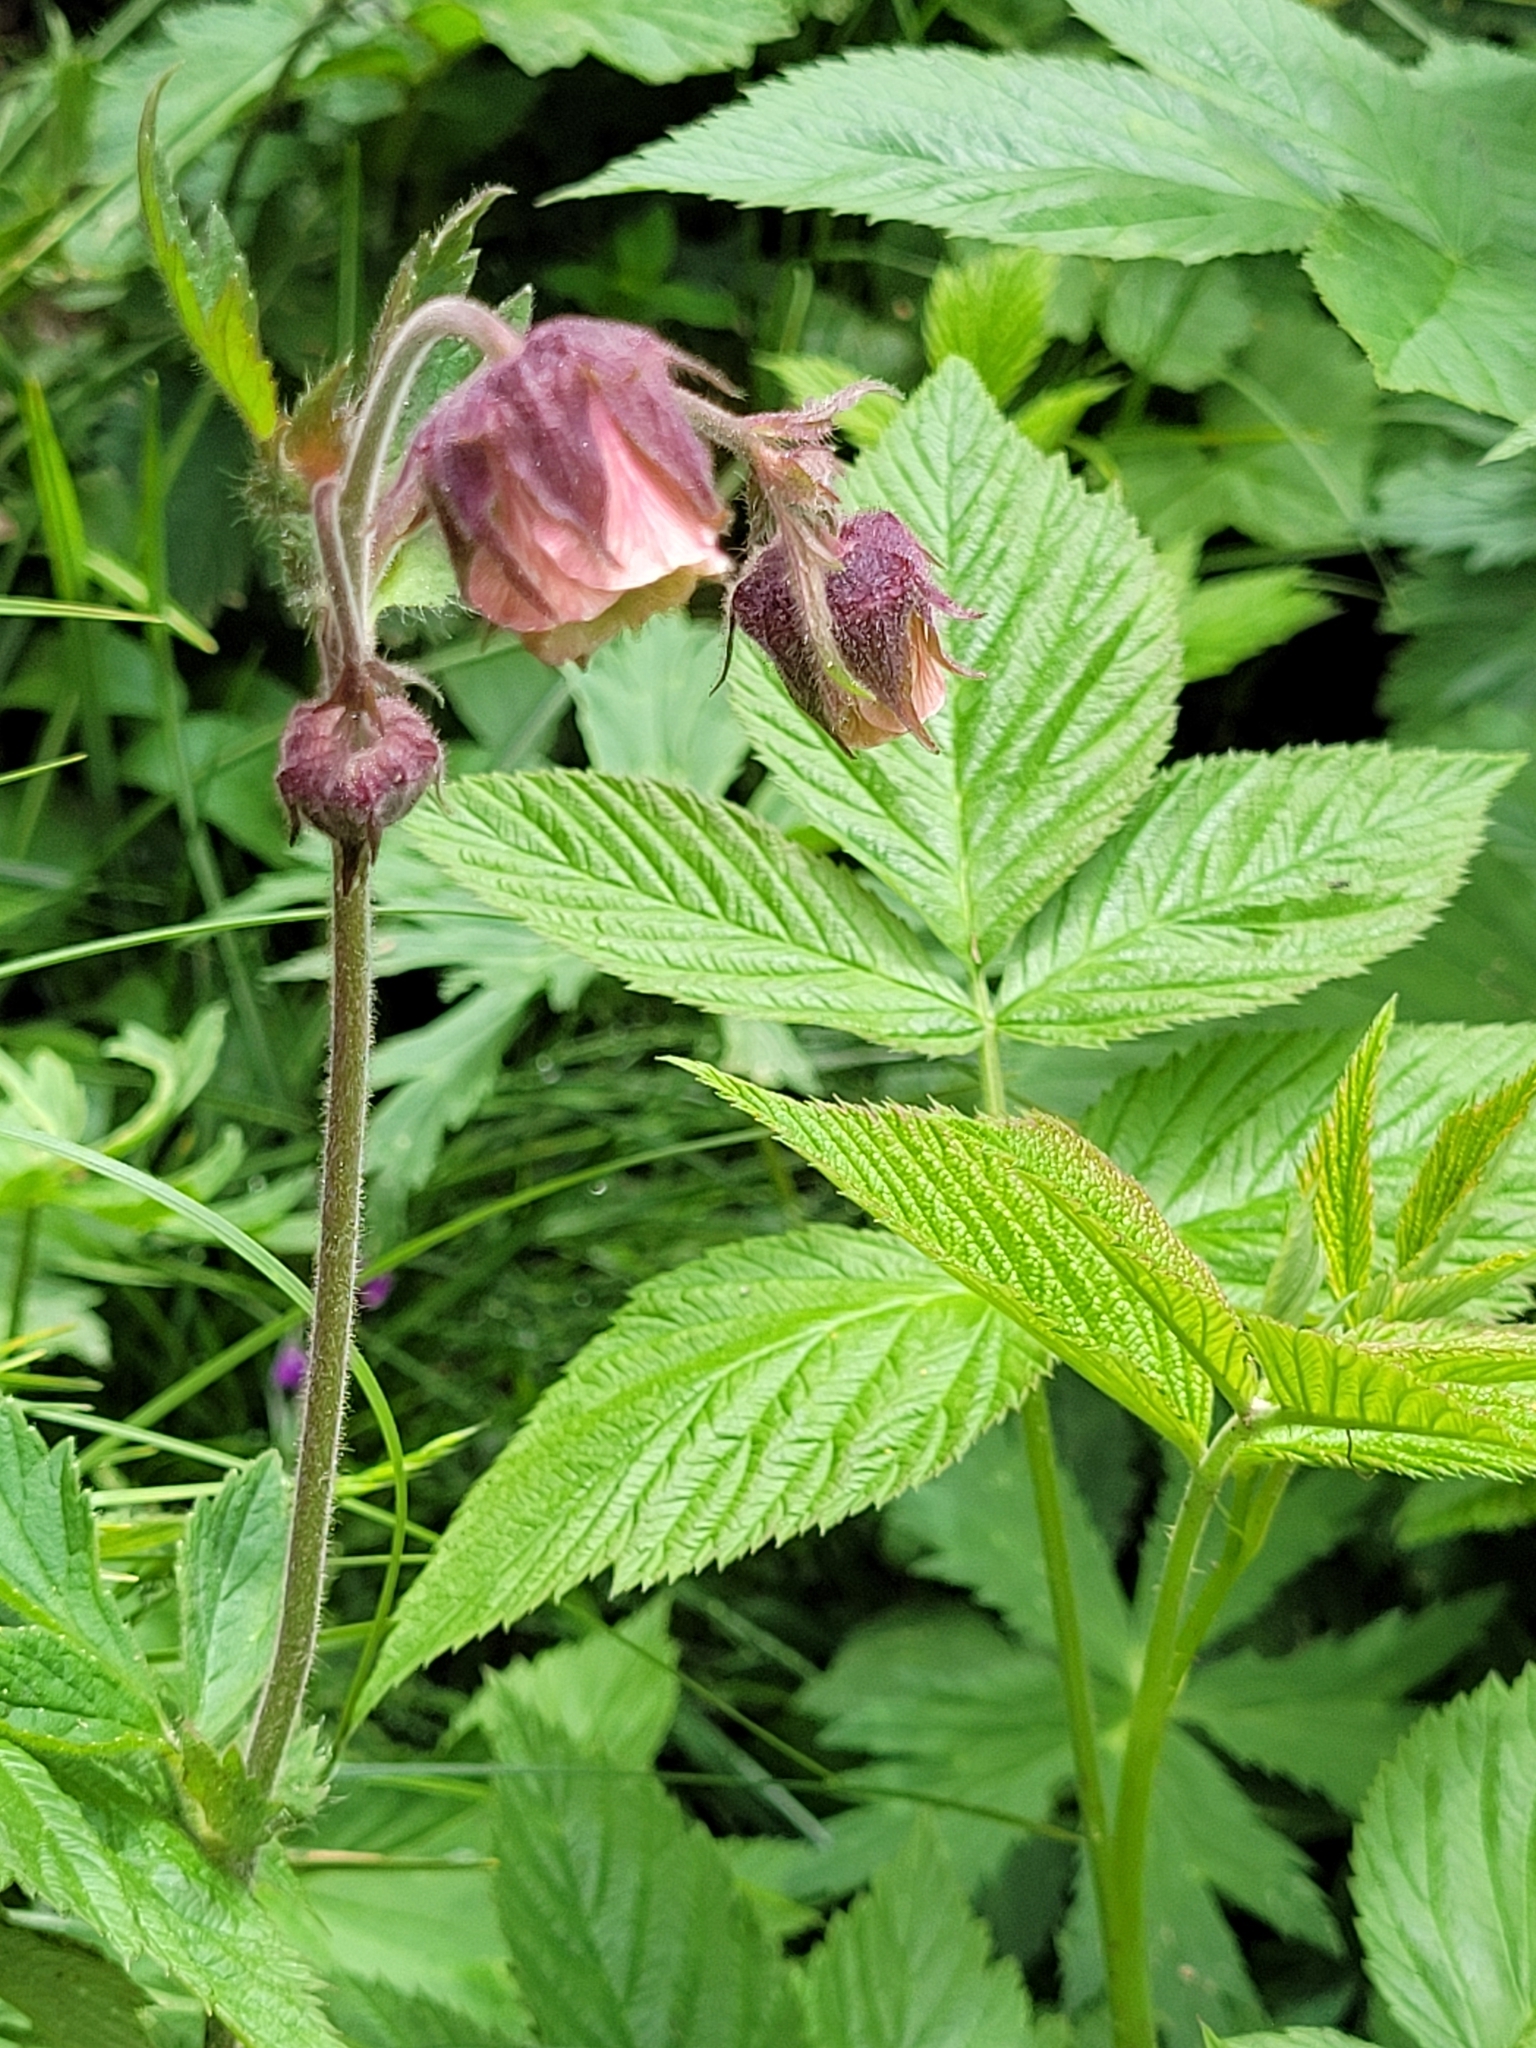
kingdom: Plantae
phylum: Tracheophyta
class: Magnoliopsida
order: Rosales
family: Rosaceae
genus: Geum
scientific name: Geum rivale
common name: Water avens
